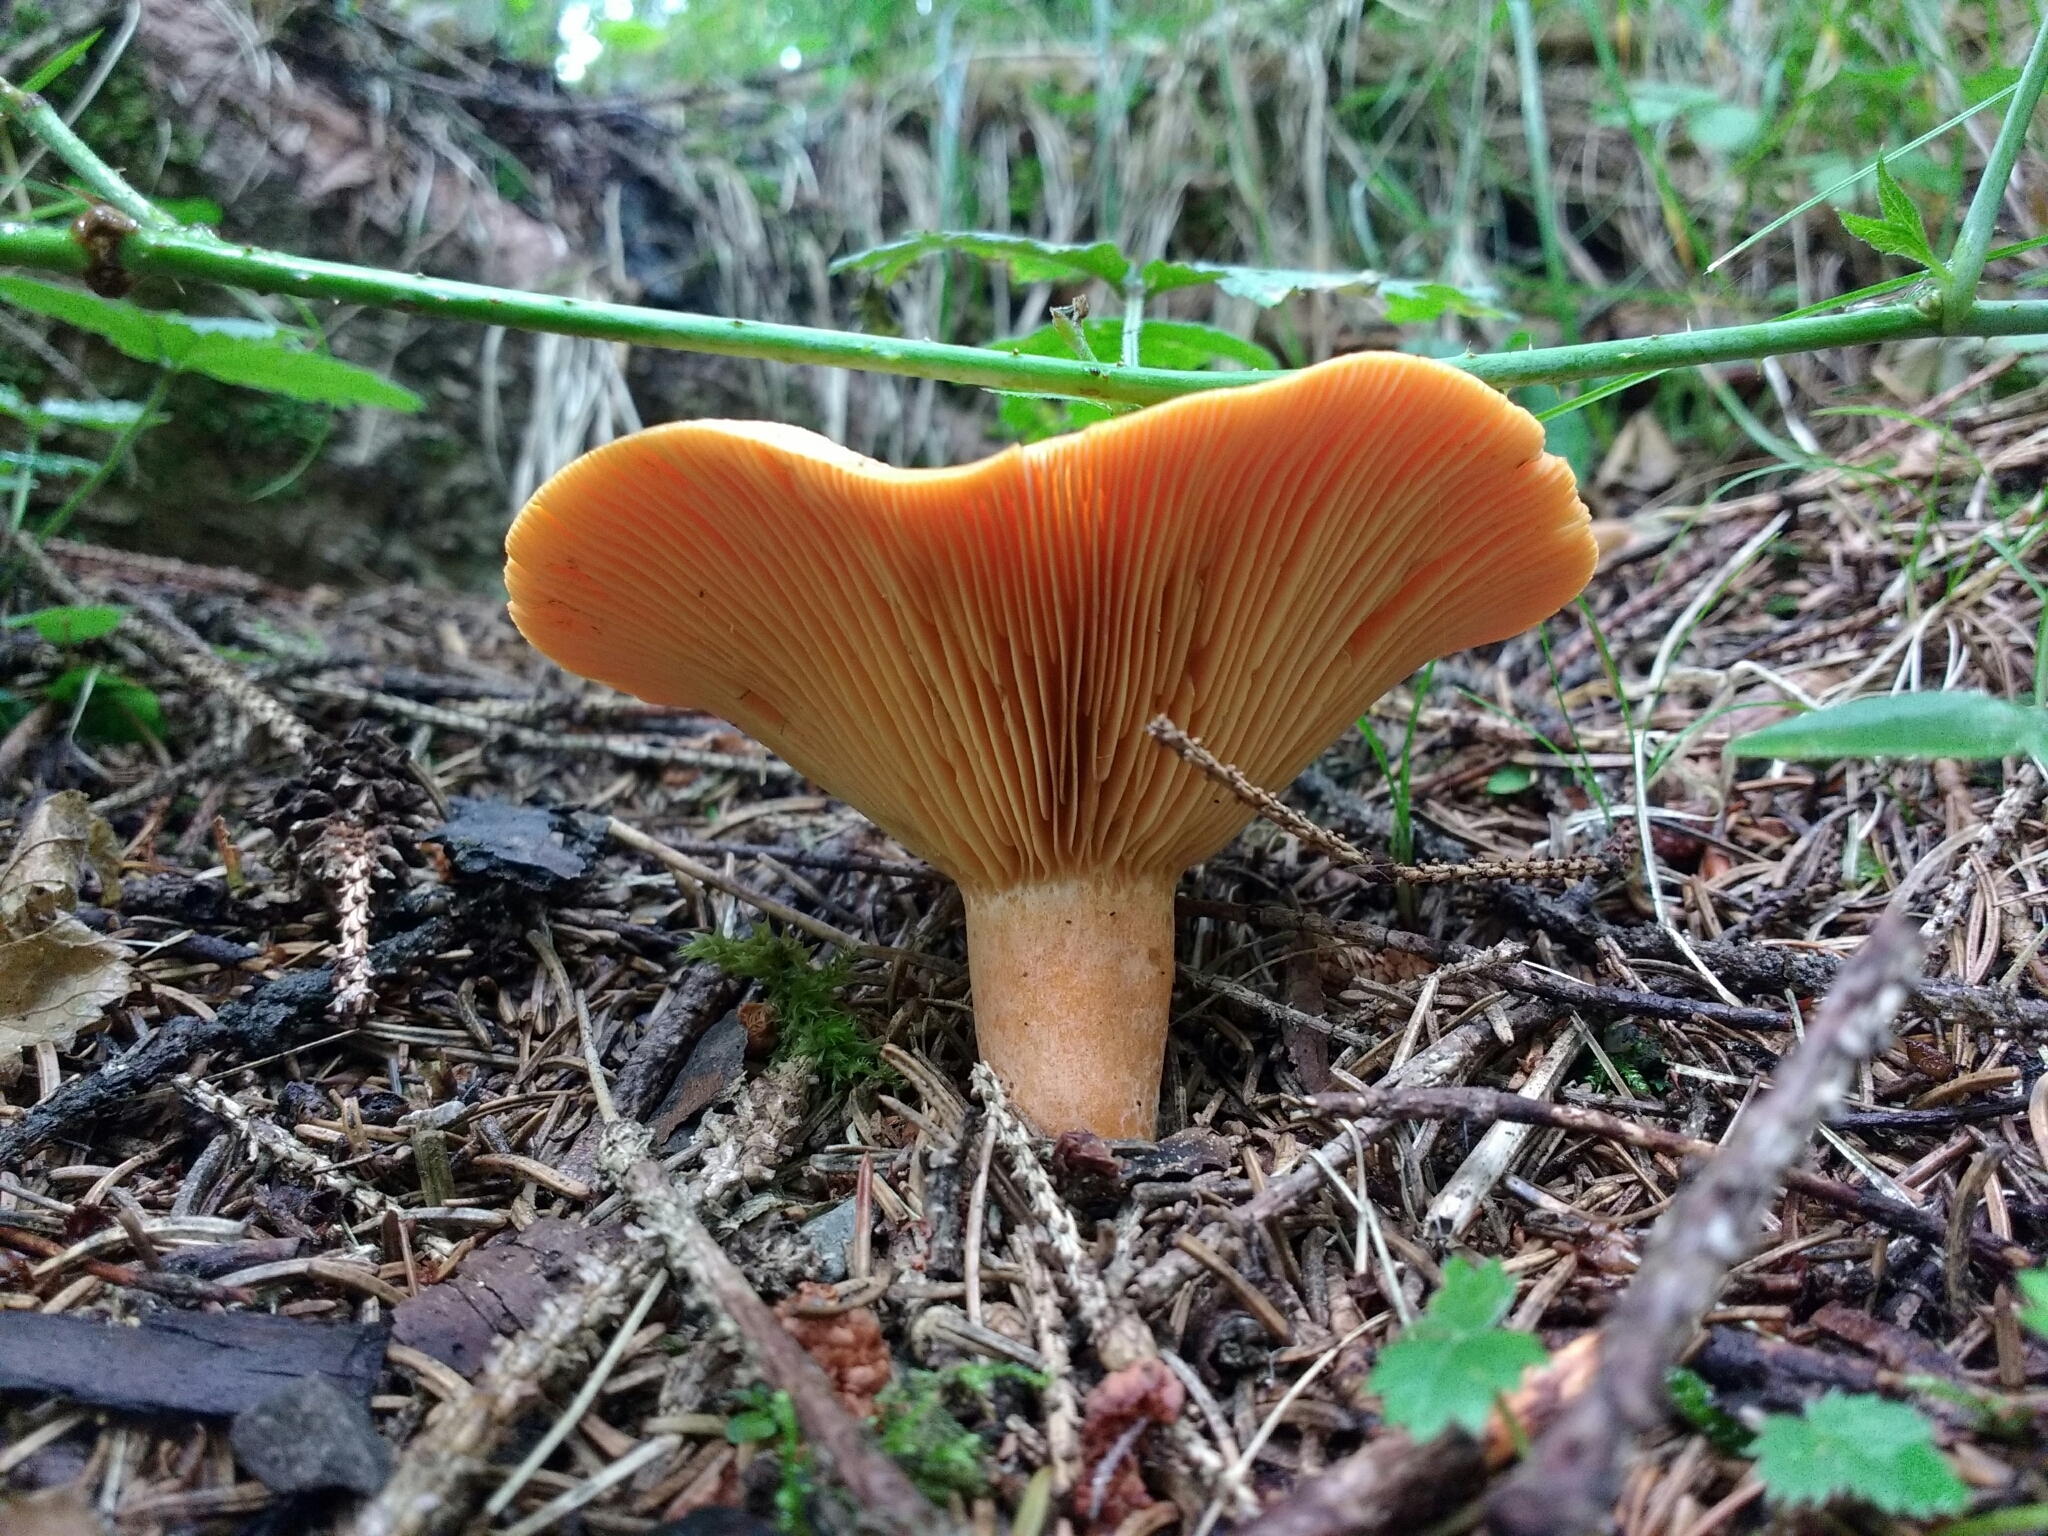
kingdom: Fungi
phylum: Basidiomycota
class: Agaricomycetes
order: Russulales
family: Russulaceae
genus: Lactarius
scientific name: Lactarius deterrimus
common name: False saffron milkcap
